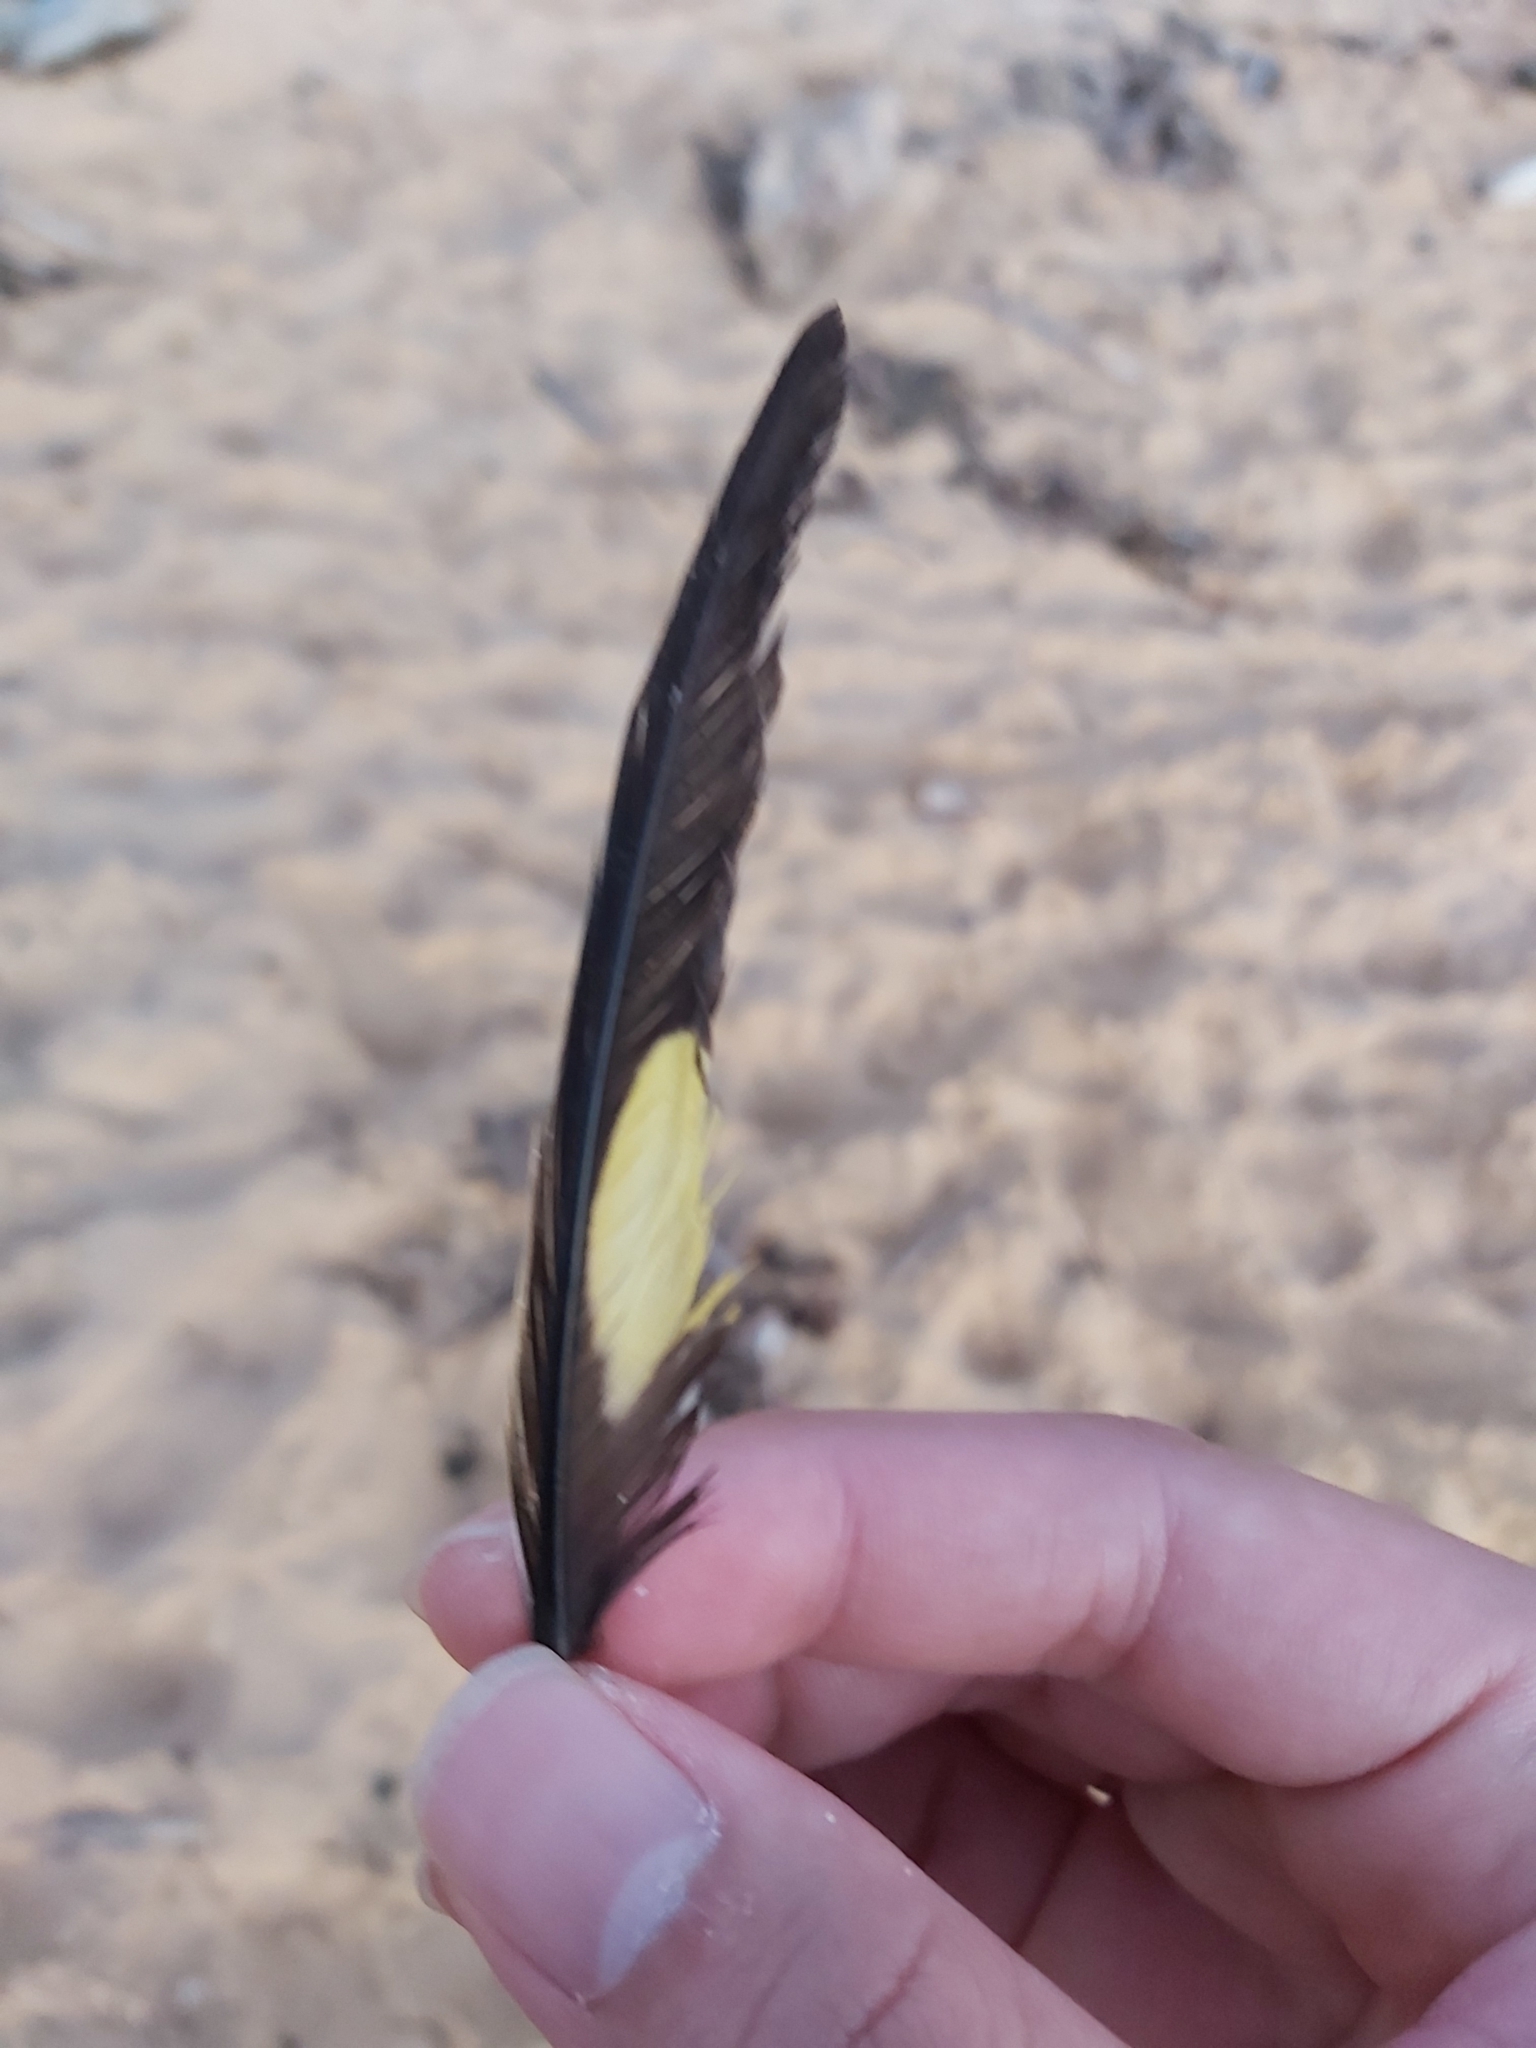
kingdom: Animalia
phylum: Chordata
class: Aves
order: Psittaciformes
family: Psittacidae
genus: Trichoglossus
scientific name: Trichoglossus haematodus
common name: Coconut lorikeet
